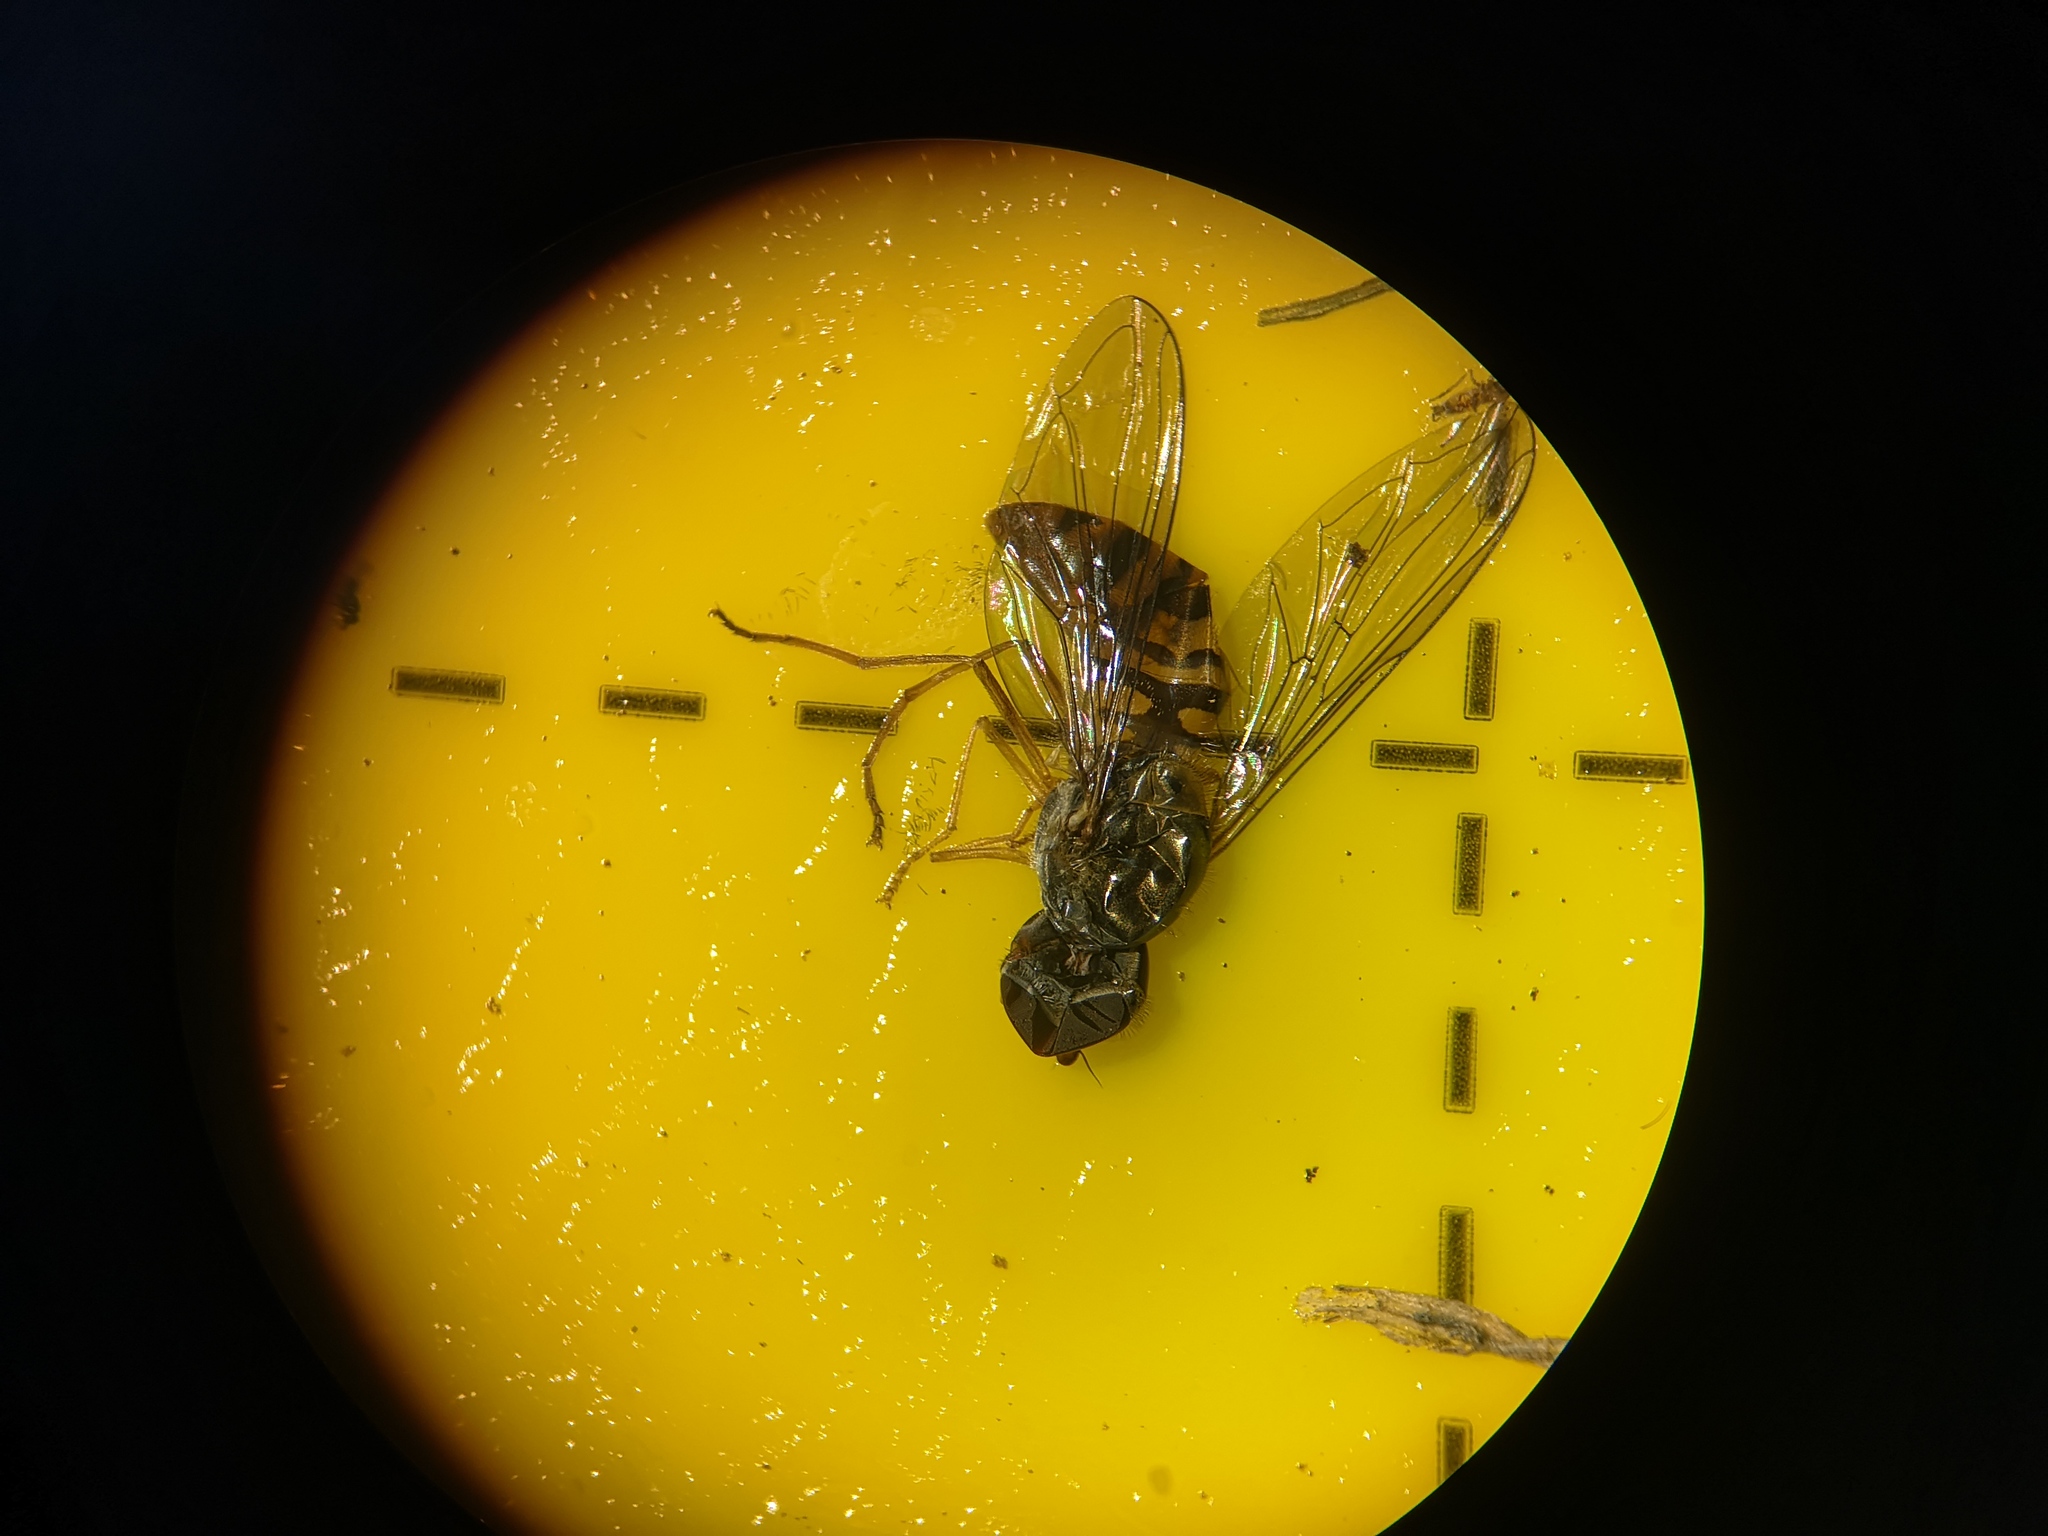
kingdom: Animalia
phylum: Arthropoda
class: Insecta
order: Diptera
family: Syrphidae
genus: Episyrphus
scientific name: Episyrphus balteatus
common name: Marmalade hoverfly
